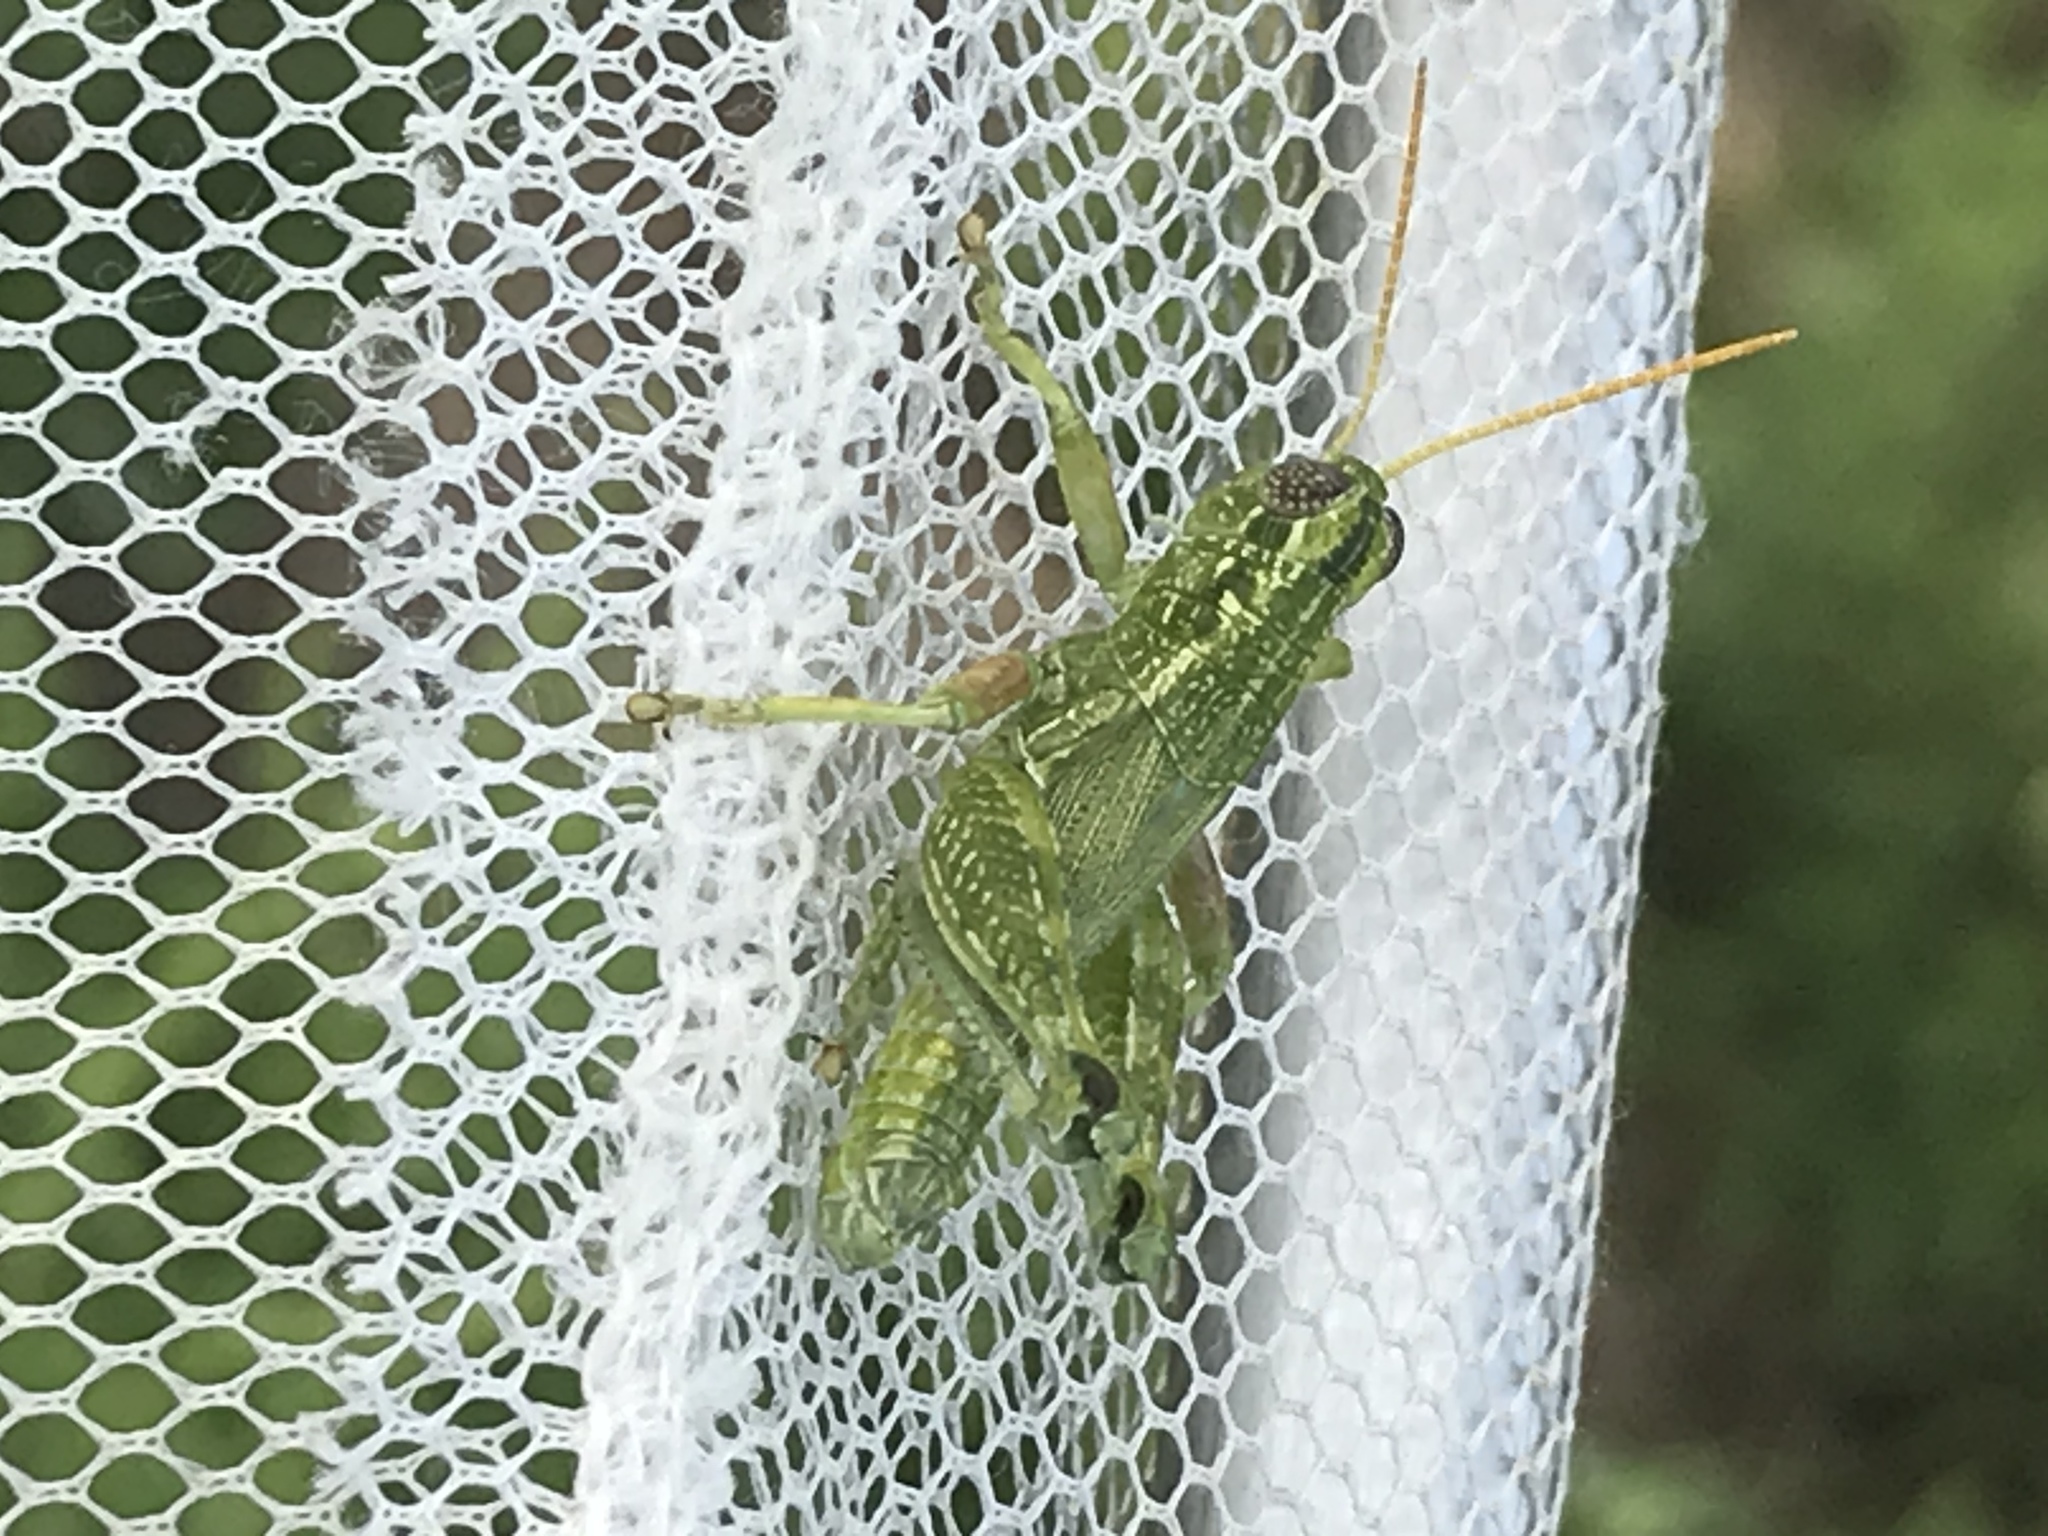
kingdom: Animalia
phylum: Arthropoda
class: Insecta
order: Orthoptera
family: Acrididae
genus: Campylacantha
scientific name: Campylacantha olivacea
